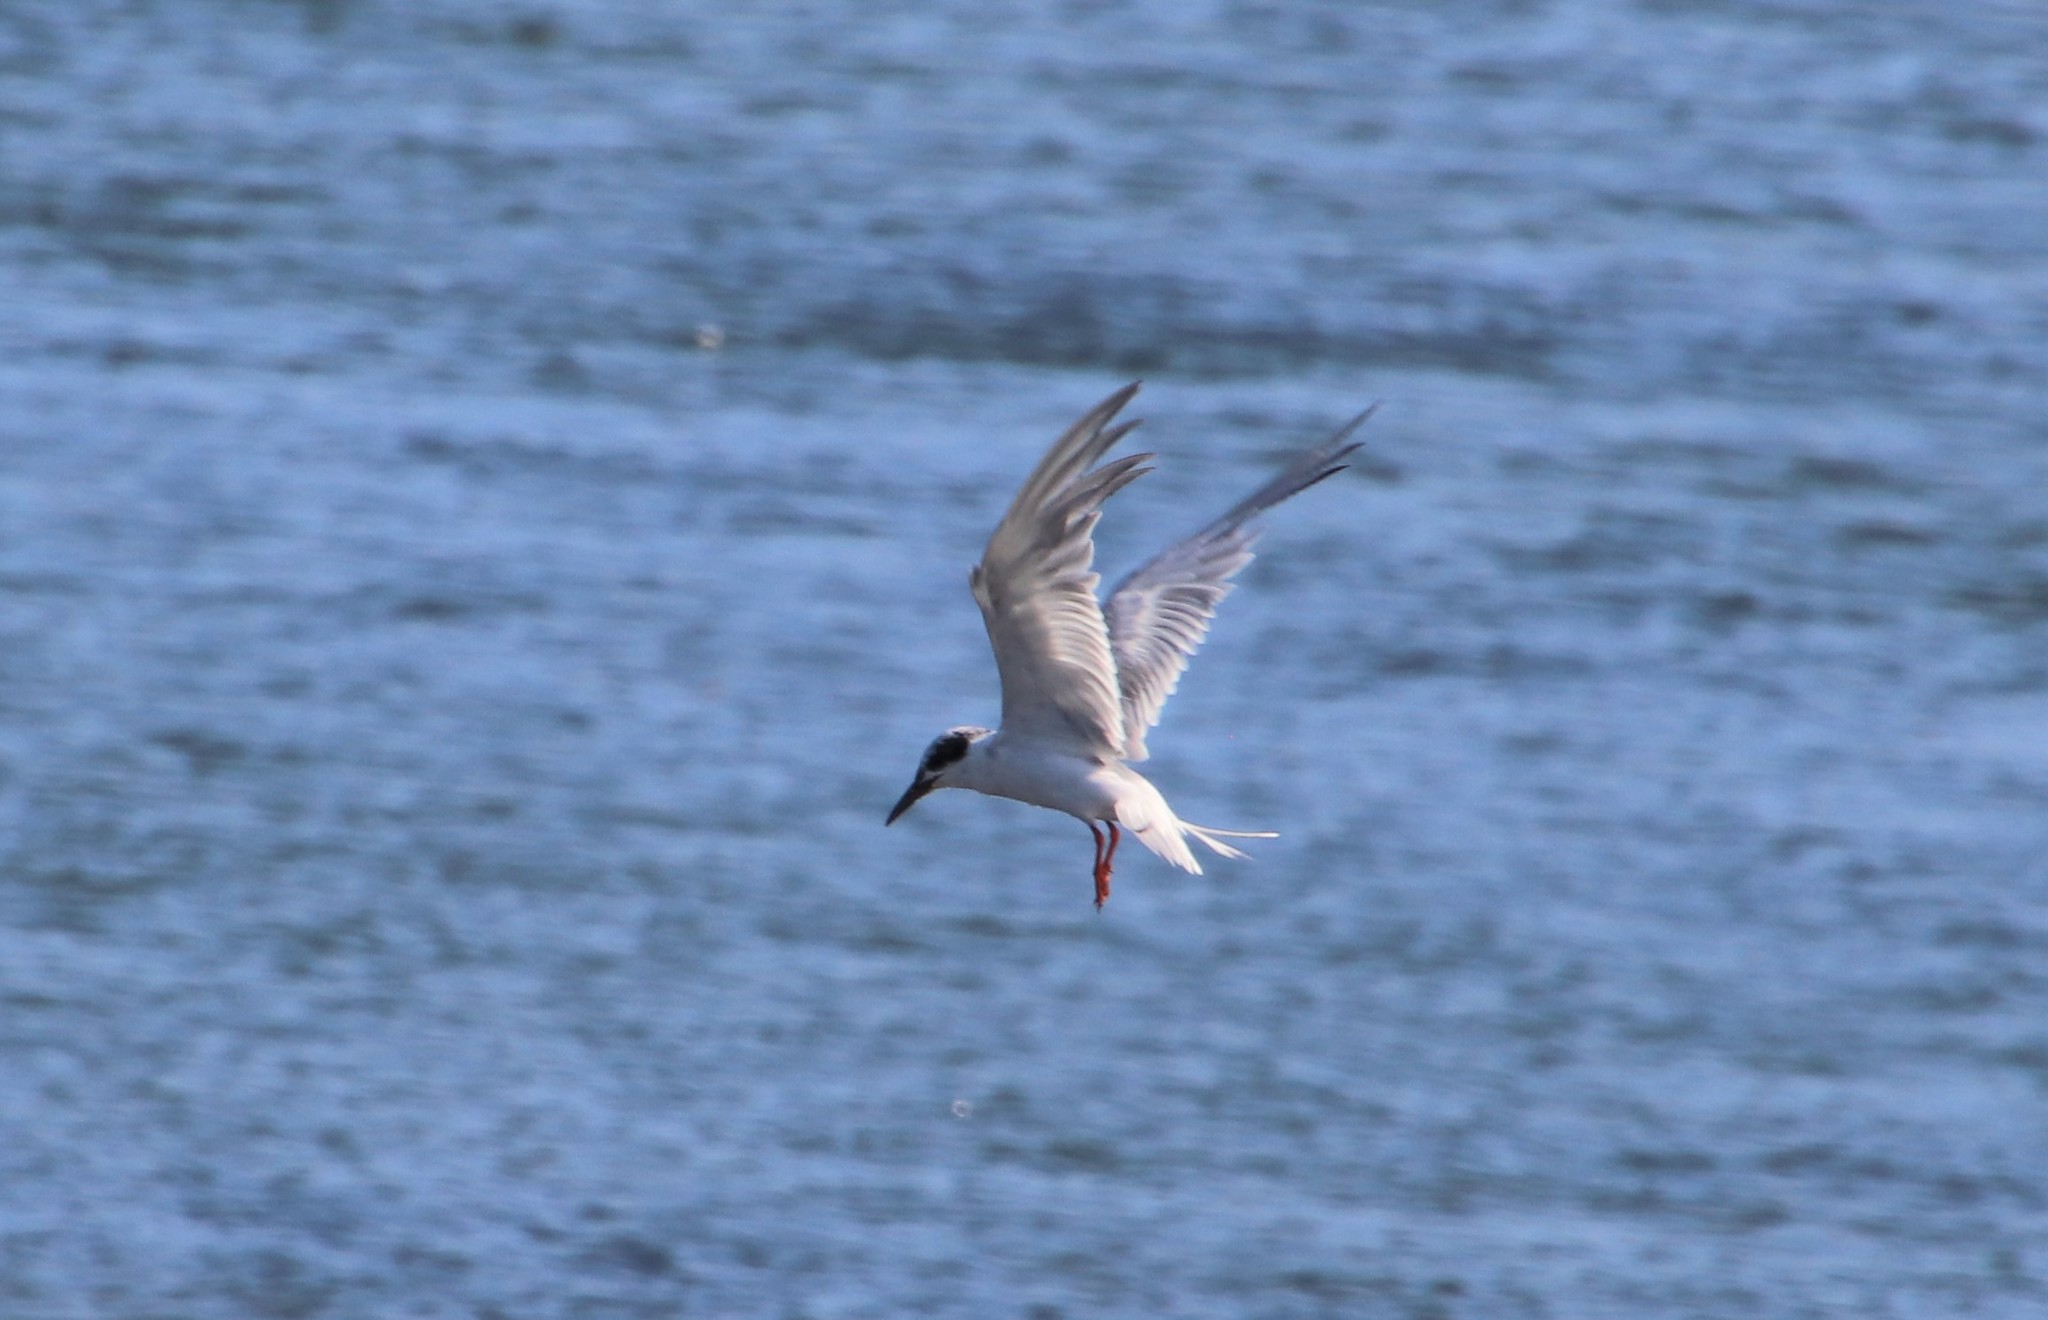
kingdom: Animalia
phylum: Chordata
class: Aves
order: Charadriiformes
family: Laridae
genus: Sterna
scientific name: Sterna forsteri
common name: Forster's tern
